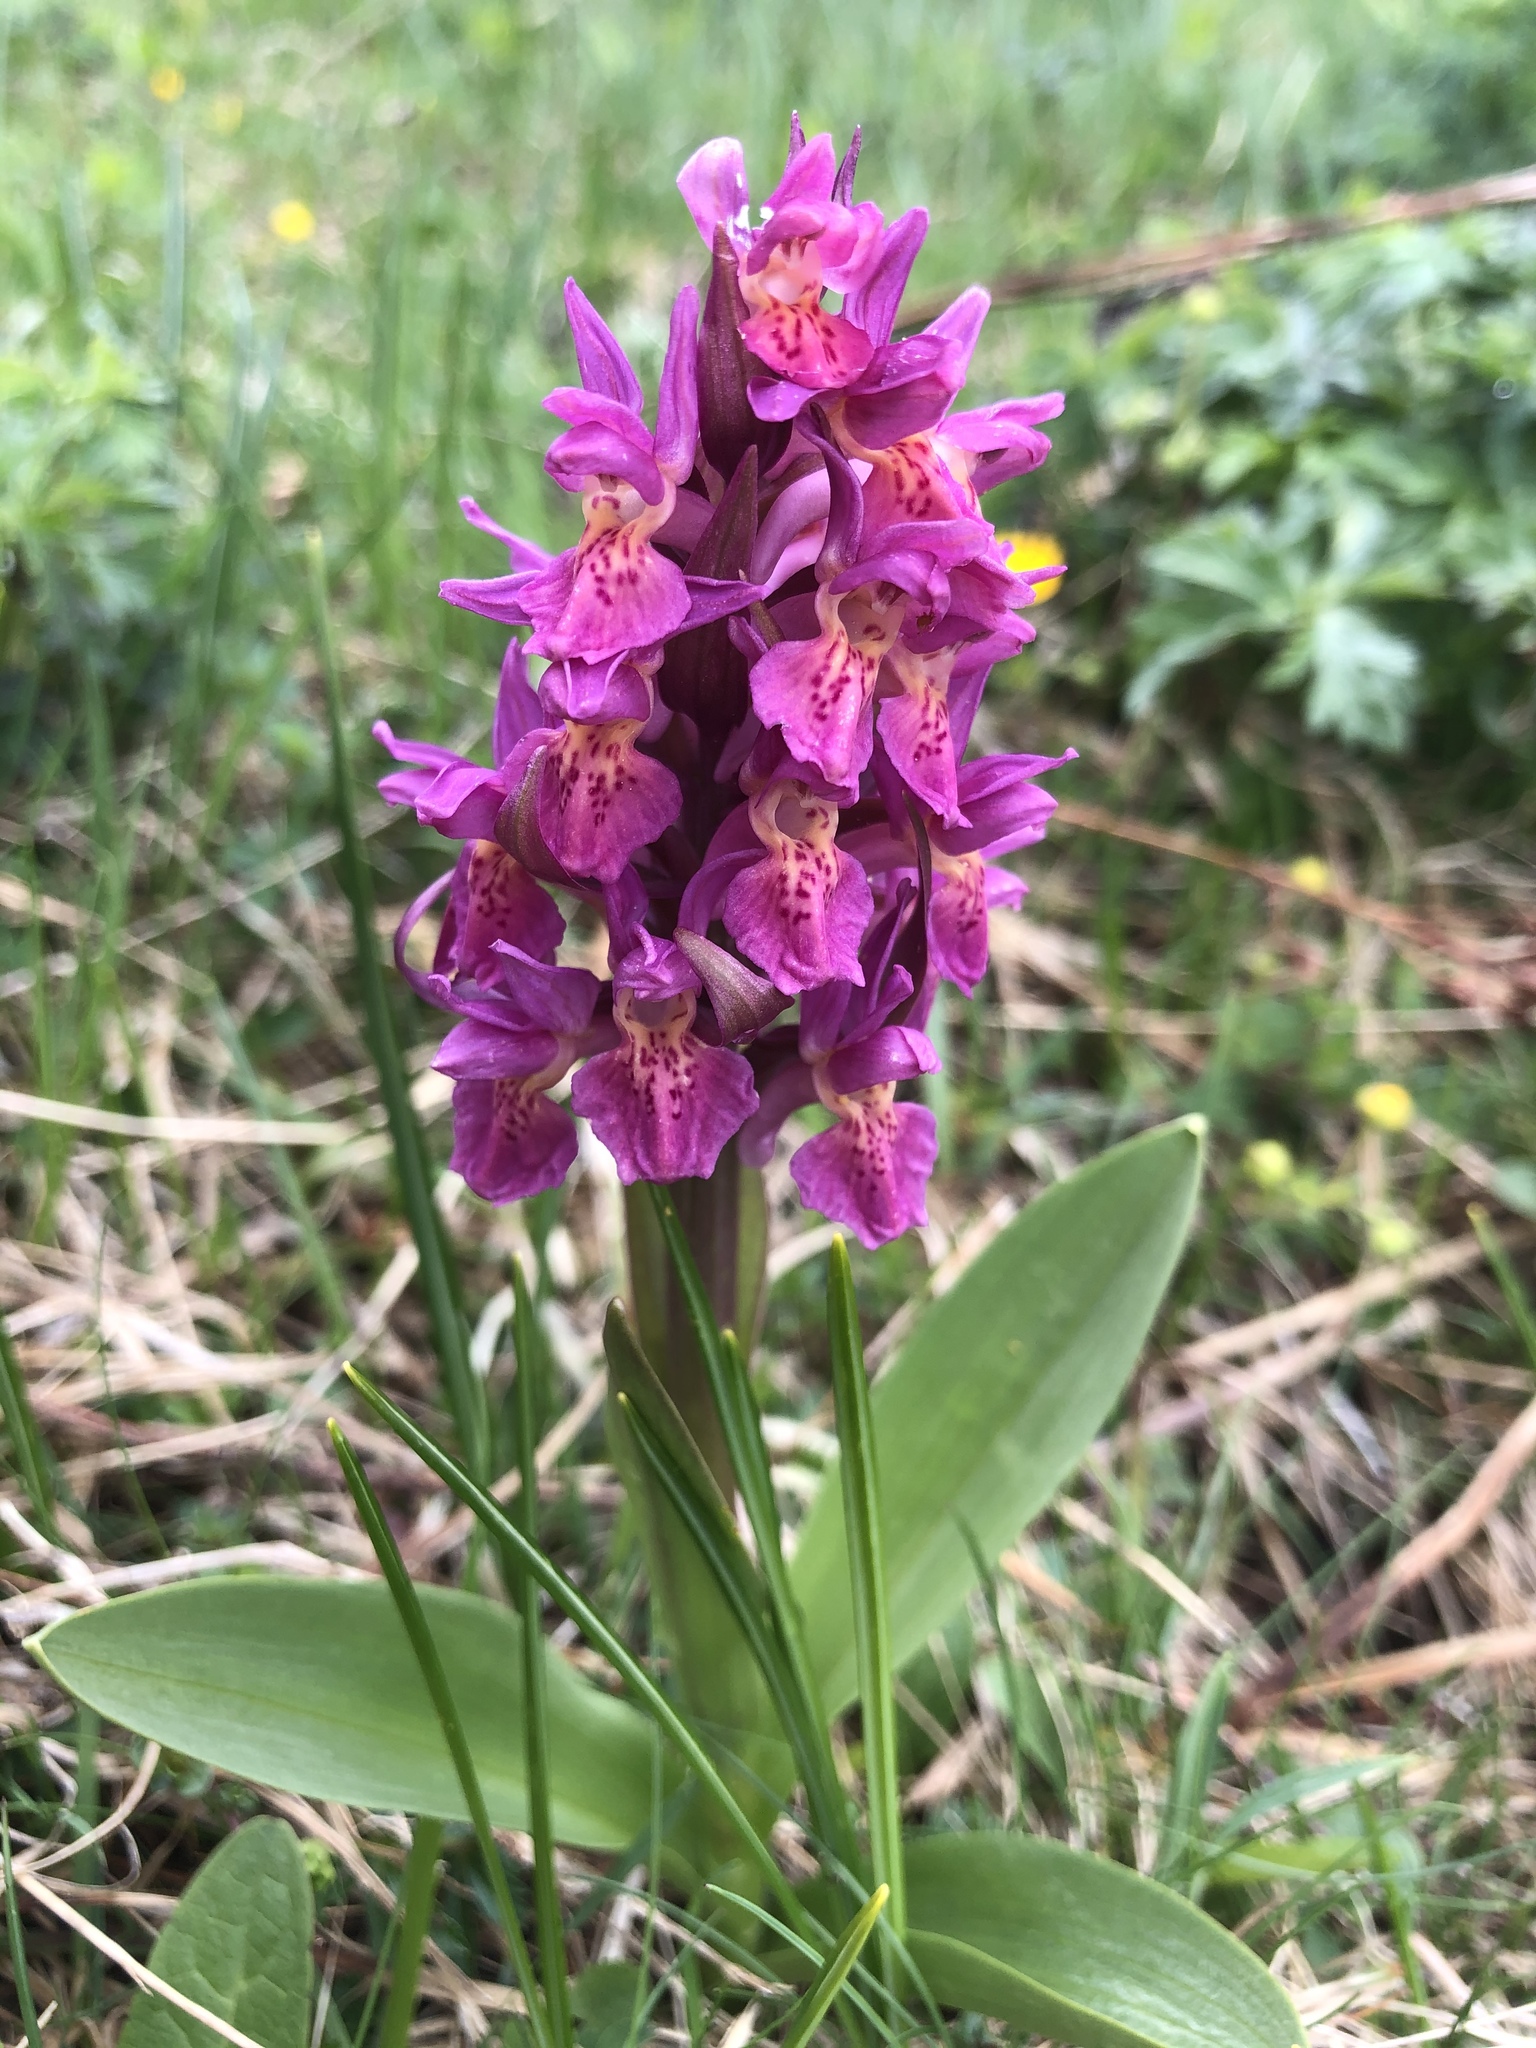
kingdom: Plantae
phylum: Tracheophyta
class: Liliopsida
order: Asparagales
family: Orchidaceae
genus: Dactylorhiza
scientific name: Dactylorhiza sambucina
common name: Elder-flowered orchid
